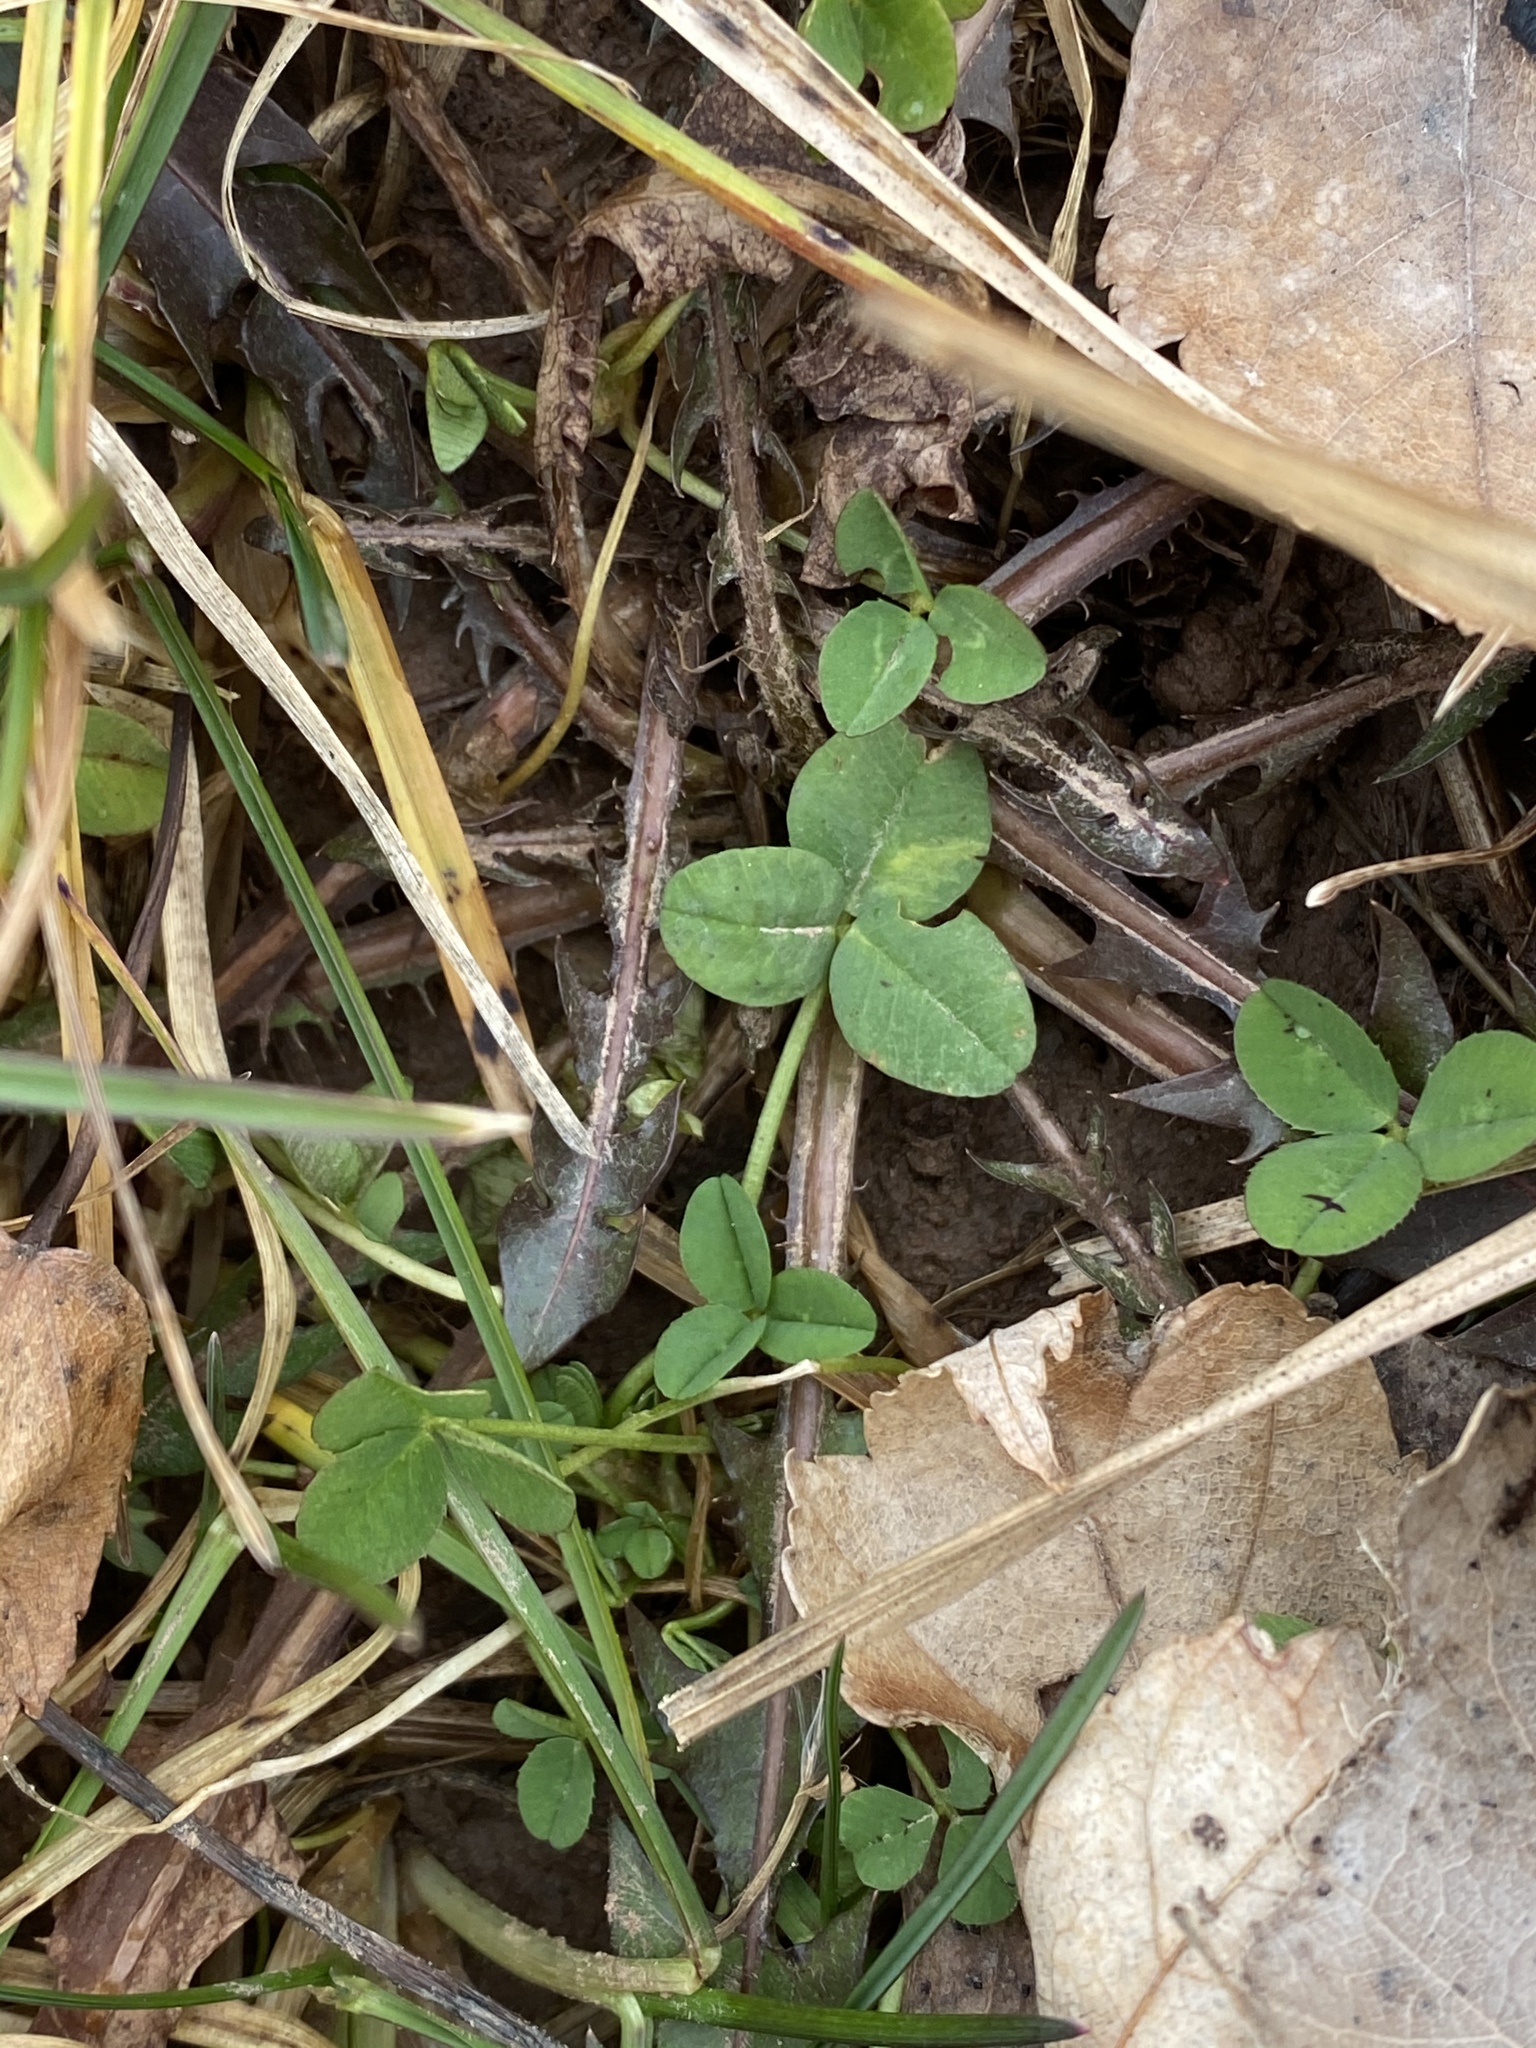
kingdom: Plantae
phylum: Tracheophyta
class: Magnoliopsida
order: Fabales
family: Fabaceae
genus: Trifolium
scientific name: Trifolium repens
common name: White clover
